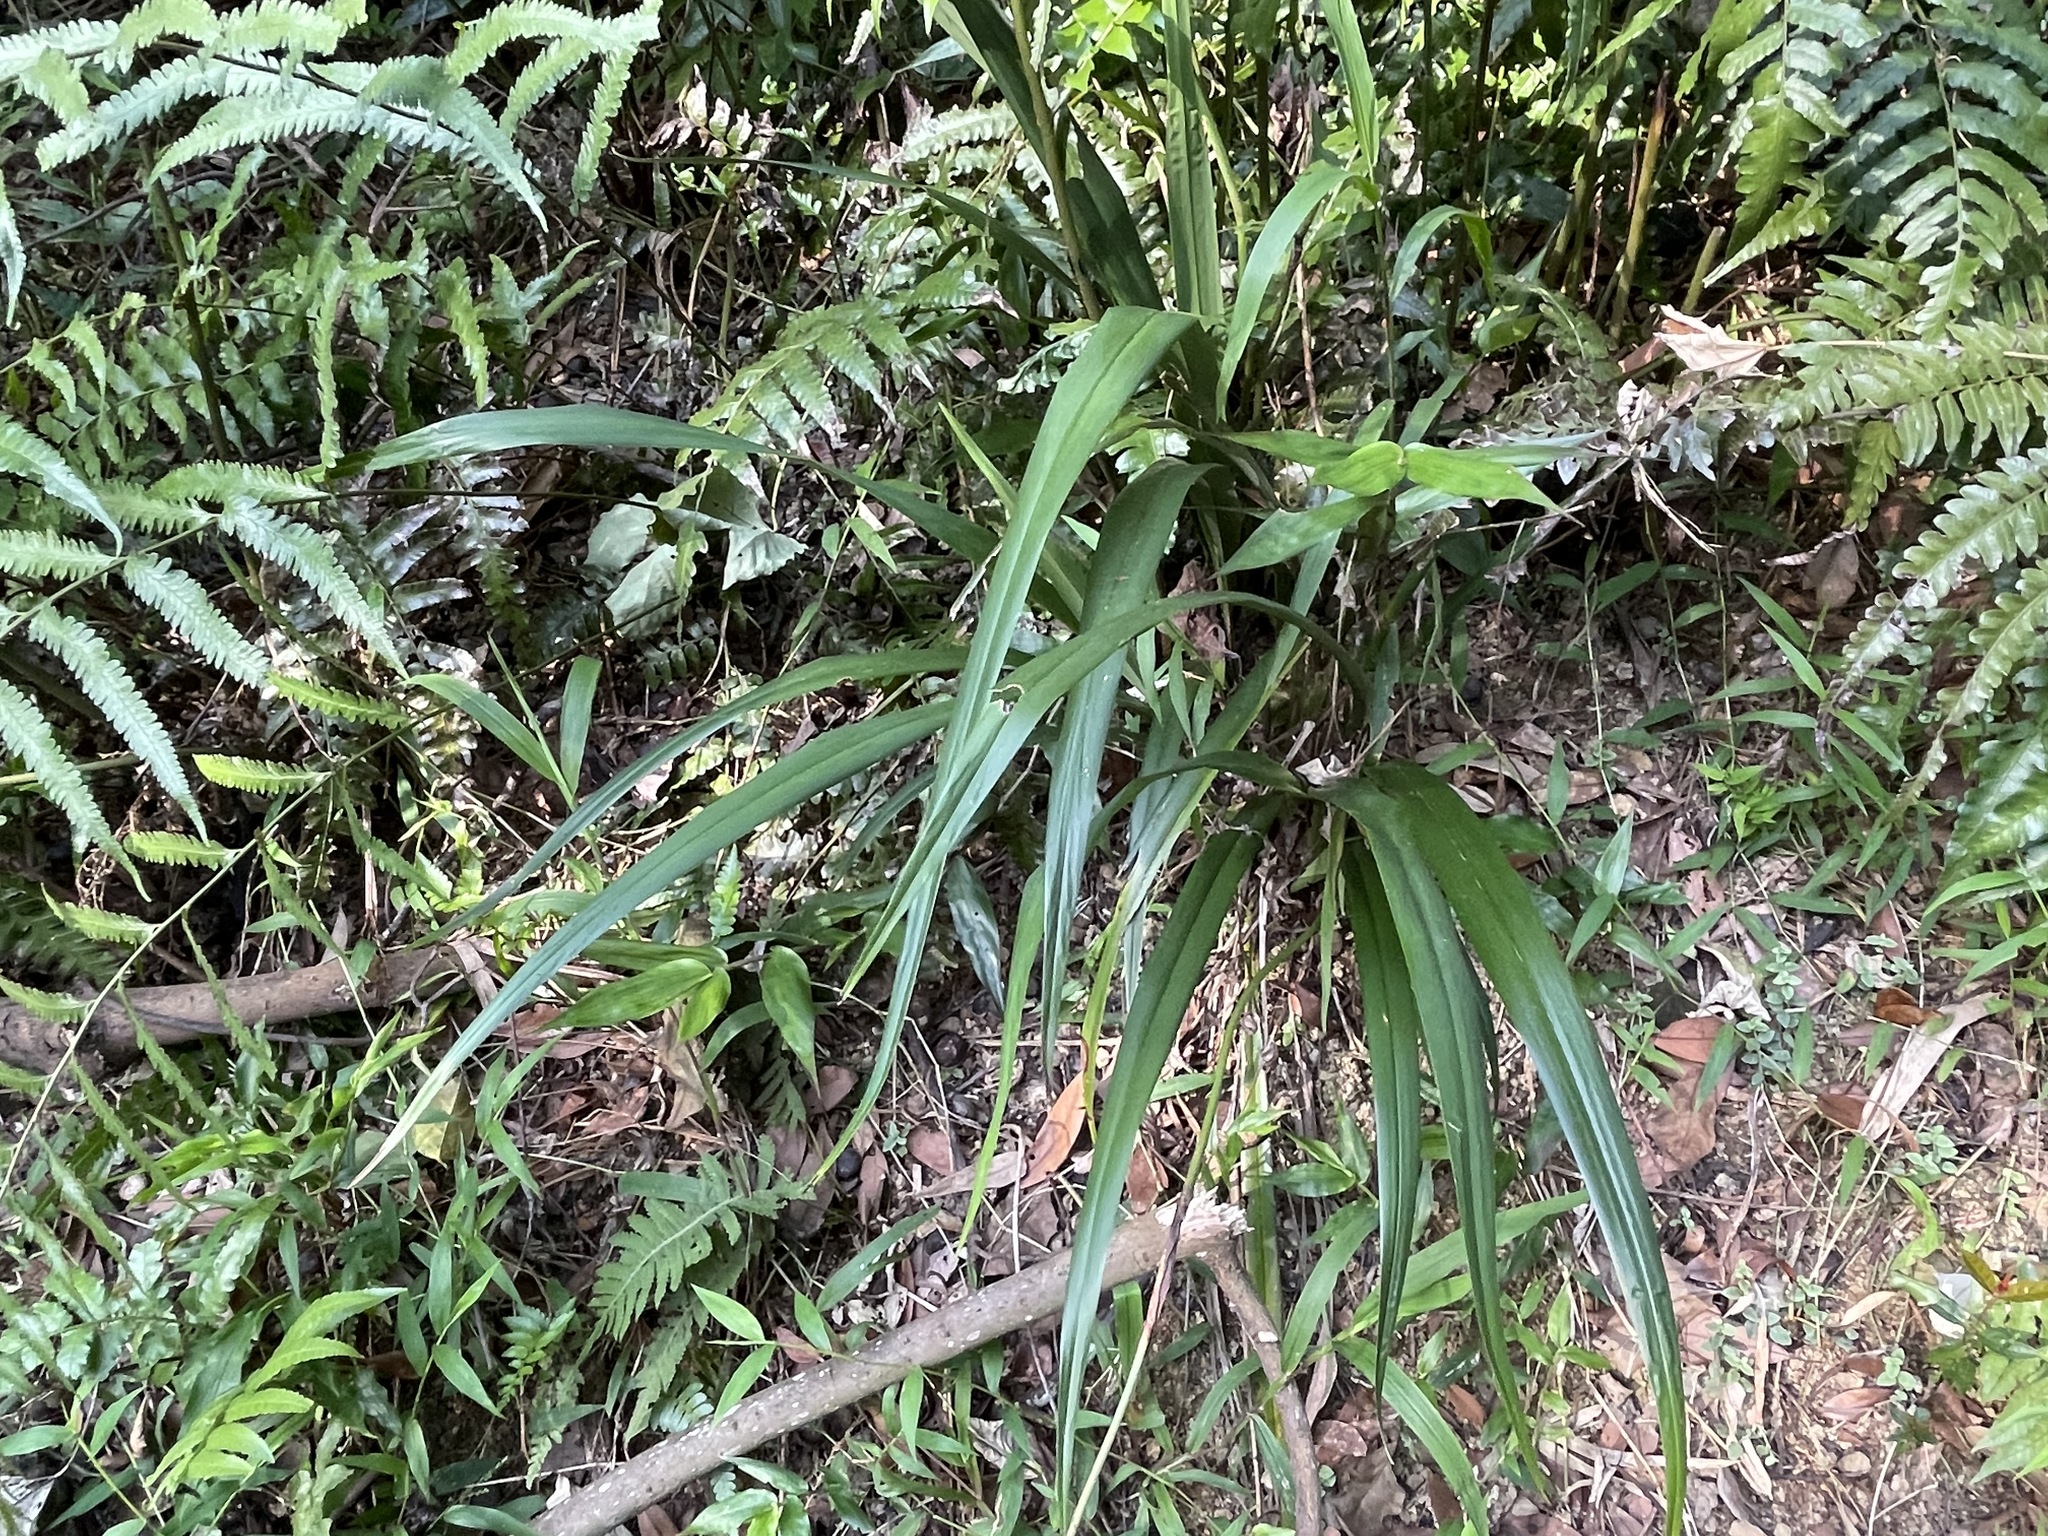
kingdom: Plantae
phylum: Tracheophyta
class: Liliopsida
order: Asparagales
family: Asphodelaceae
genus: Dianella
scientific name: Dianella ensifolia
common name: New zealand lilyplant
